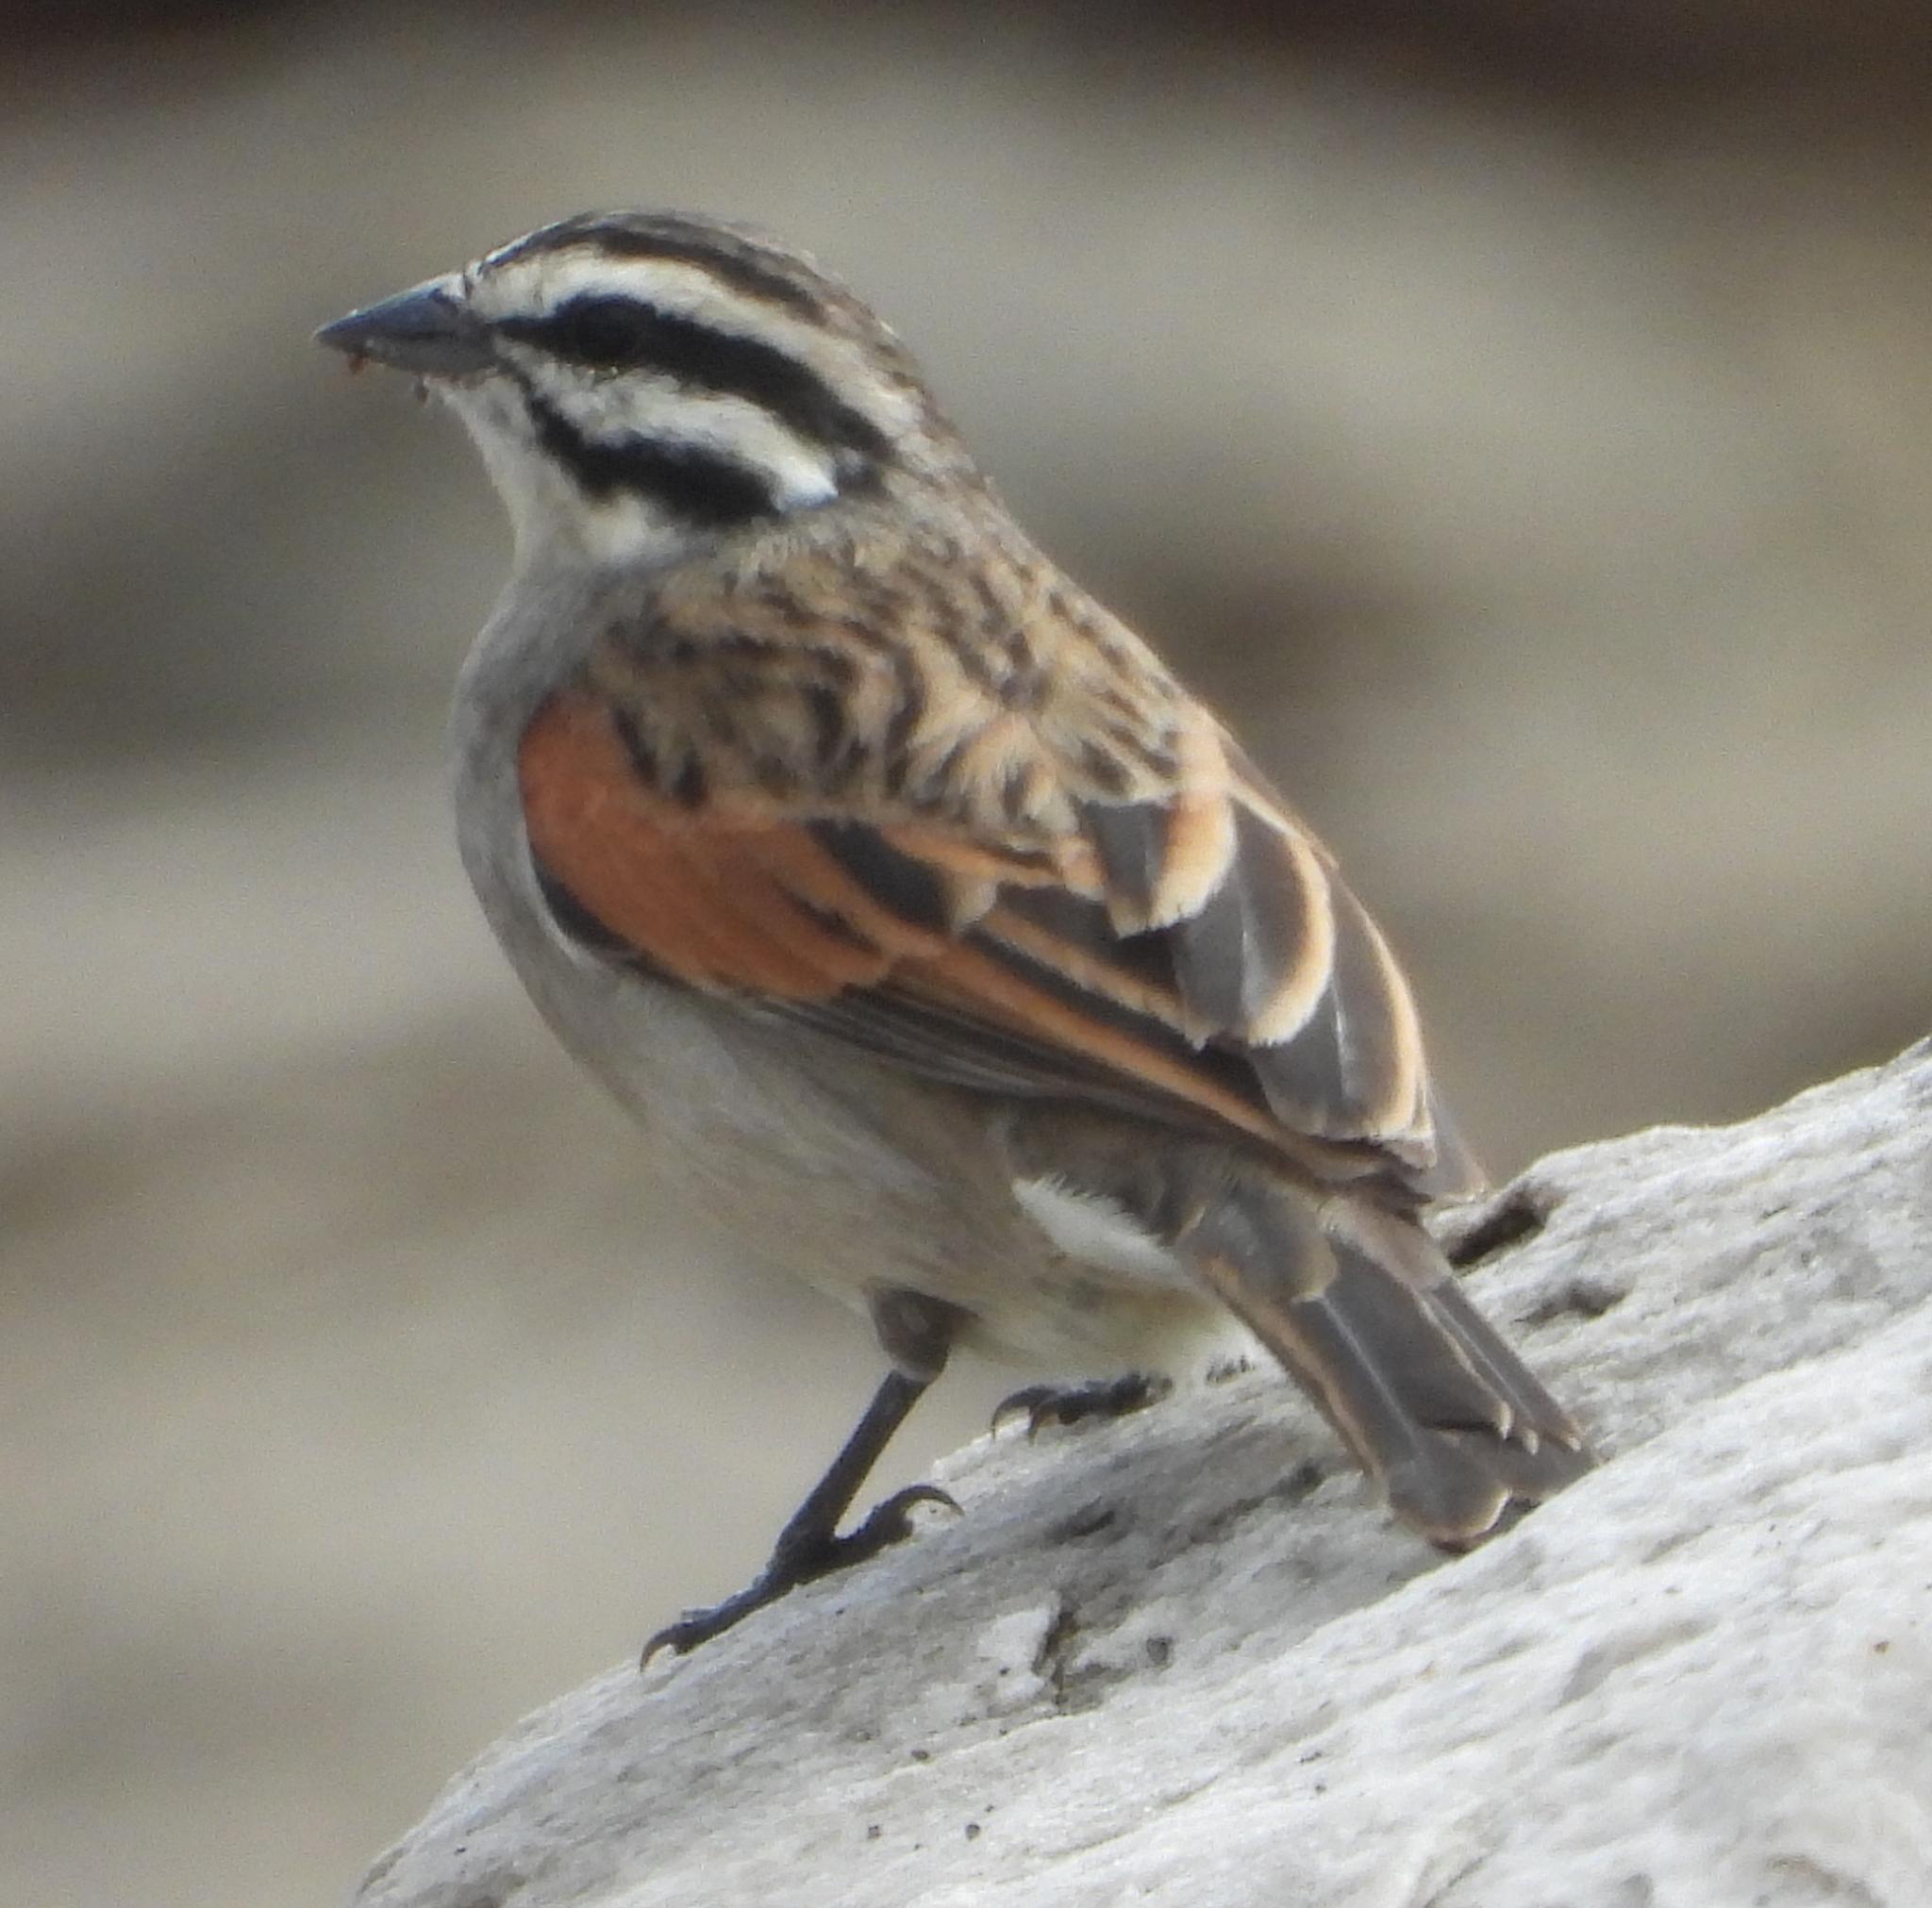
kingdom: Animalia
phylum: Chordata
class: Aves
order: Passeriformes
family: Emberizidae
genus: Emberiza
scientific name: Emberiza capensis
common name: Cape bunting
